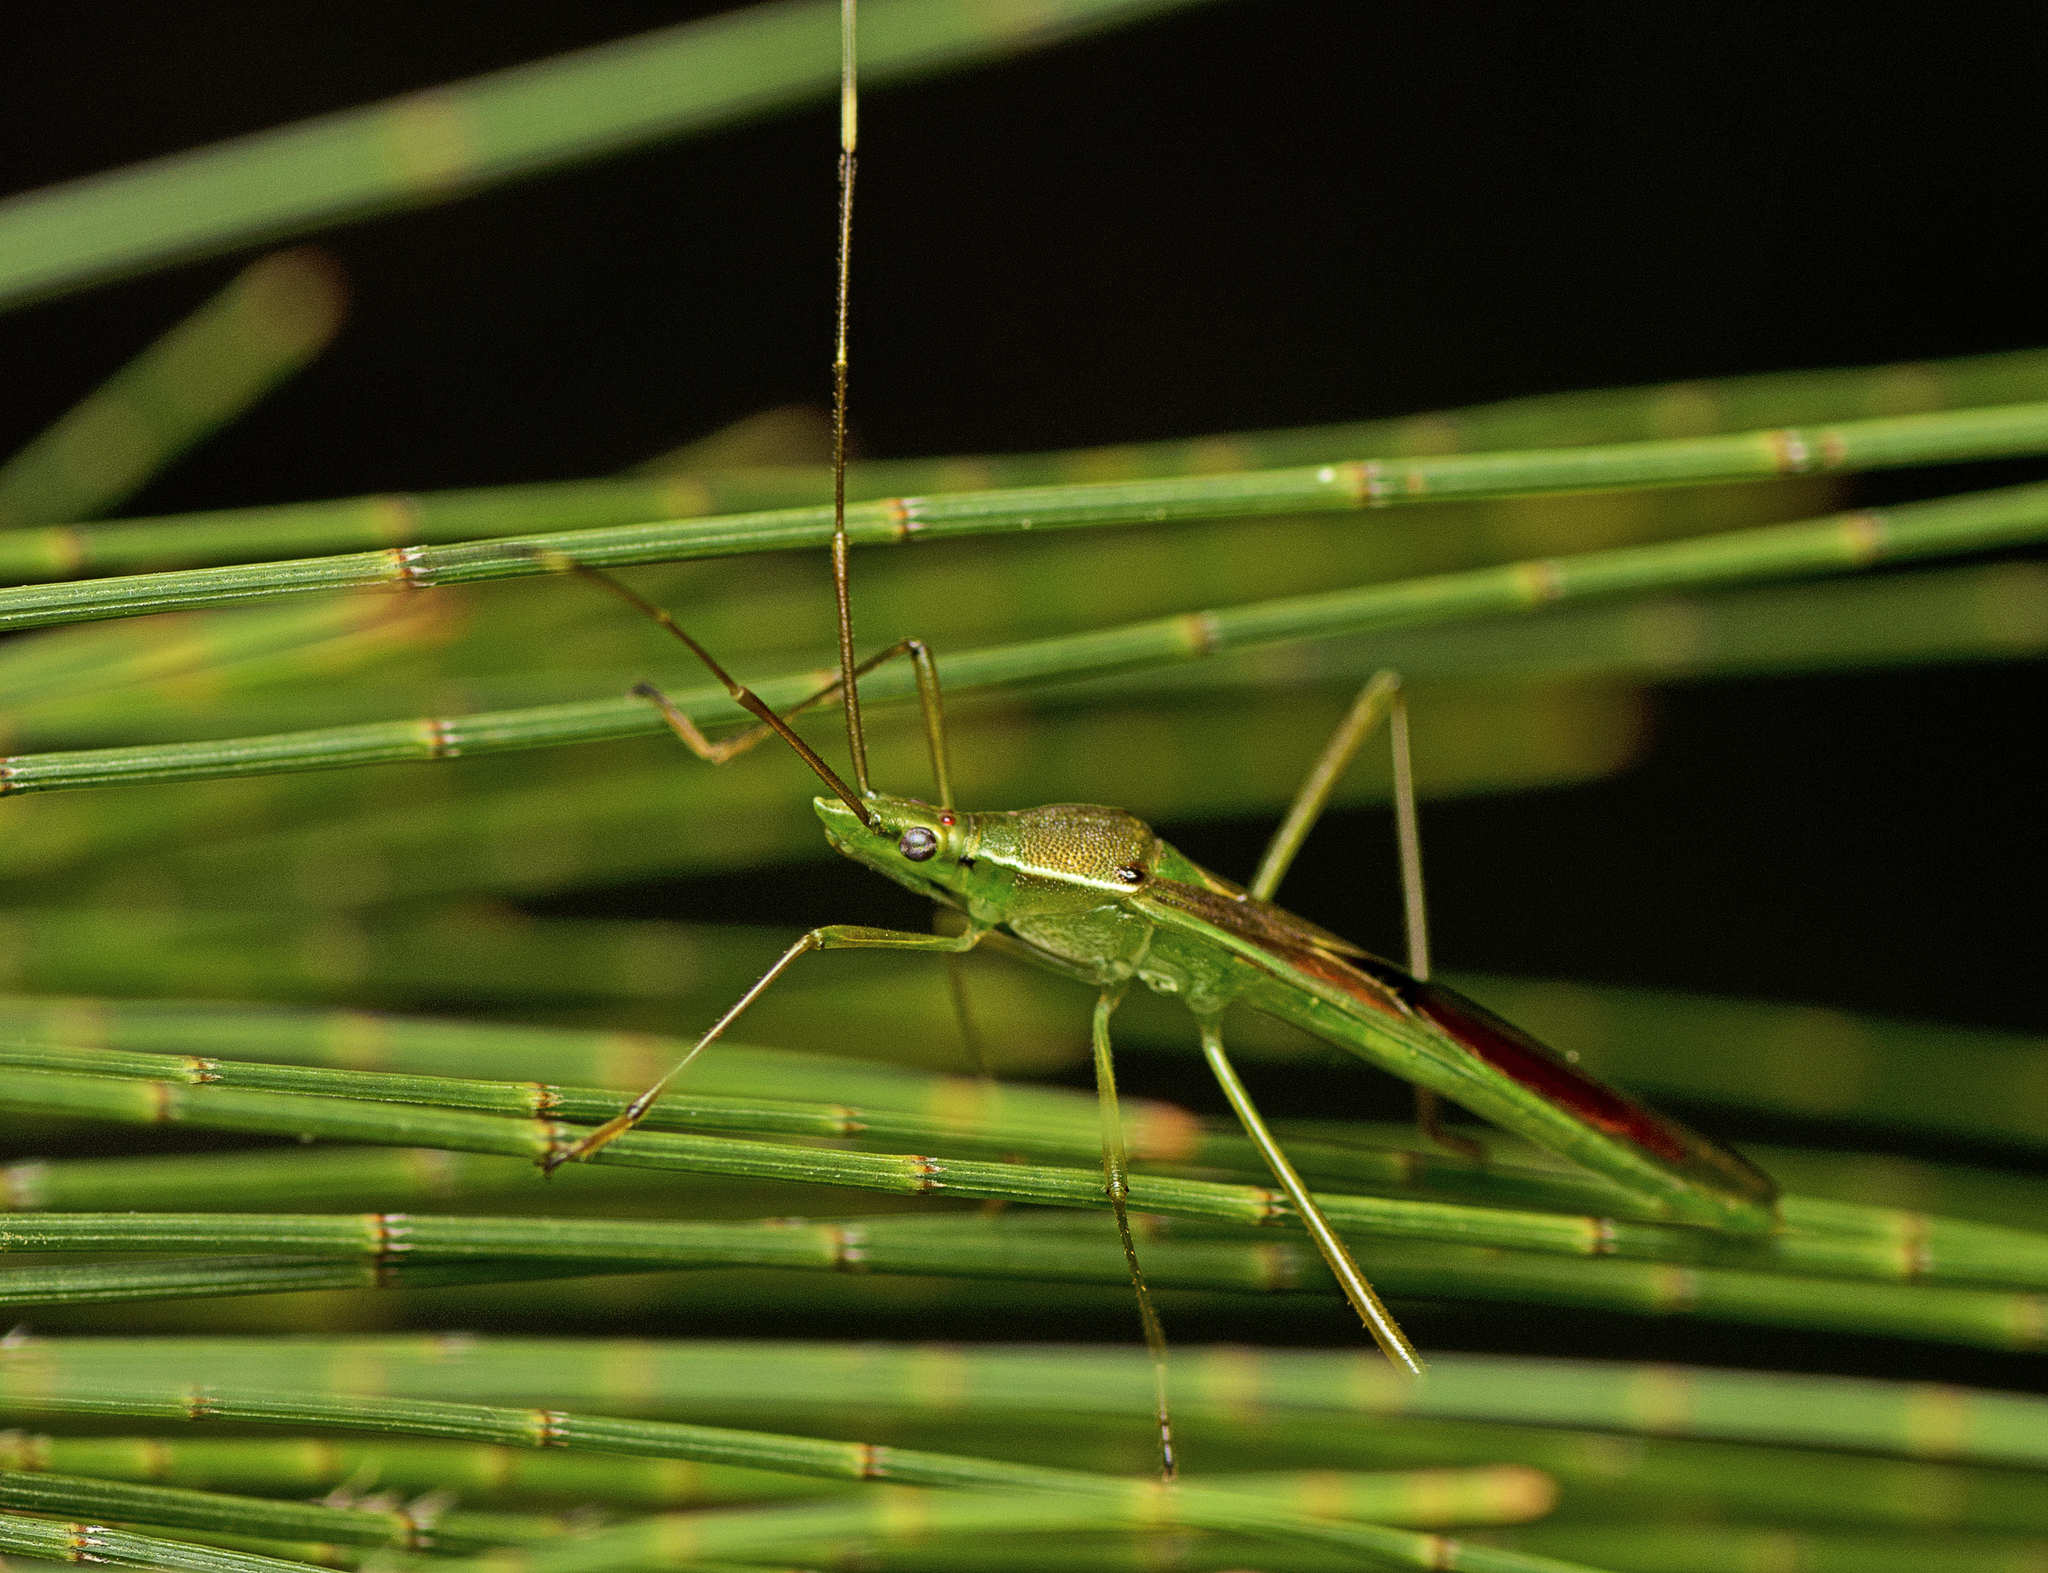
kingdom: Animalia
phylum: Arthropoda
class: Insecta
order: Hemiptera
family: Alydidae
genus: Leptocorisa
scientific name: Leptocorisa acuta
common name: Gandhi bug
